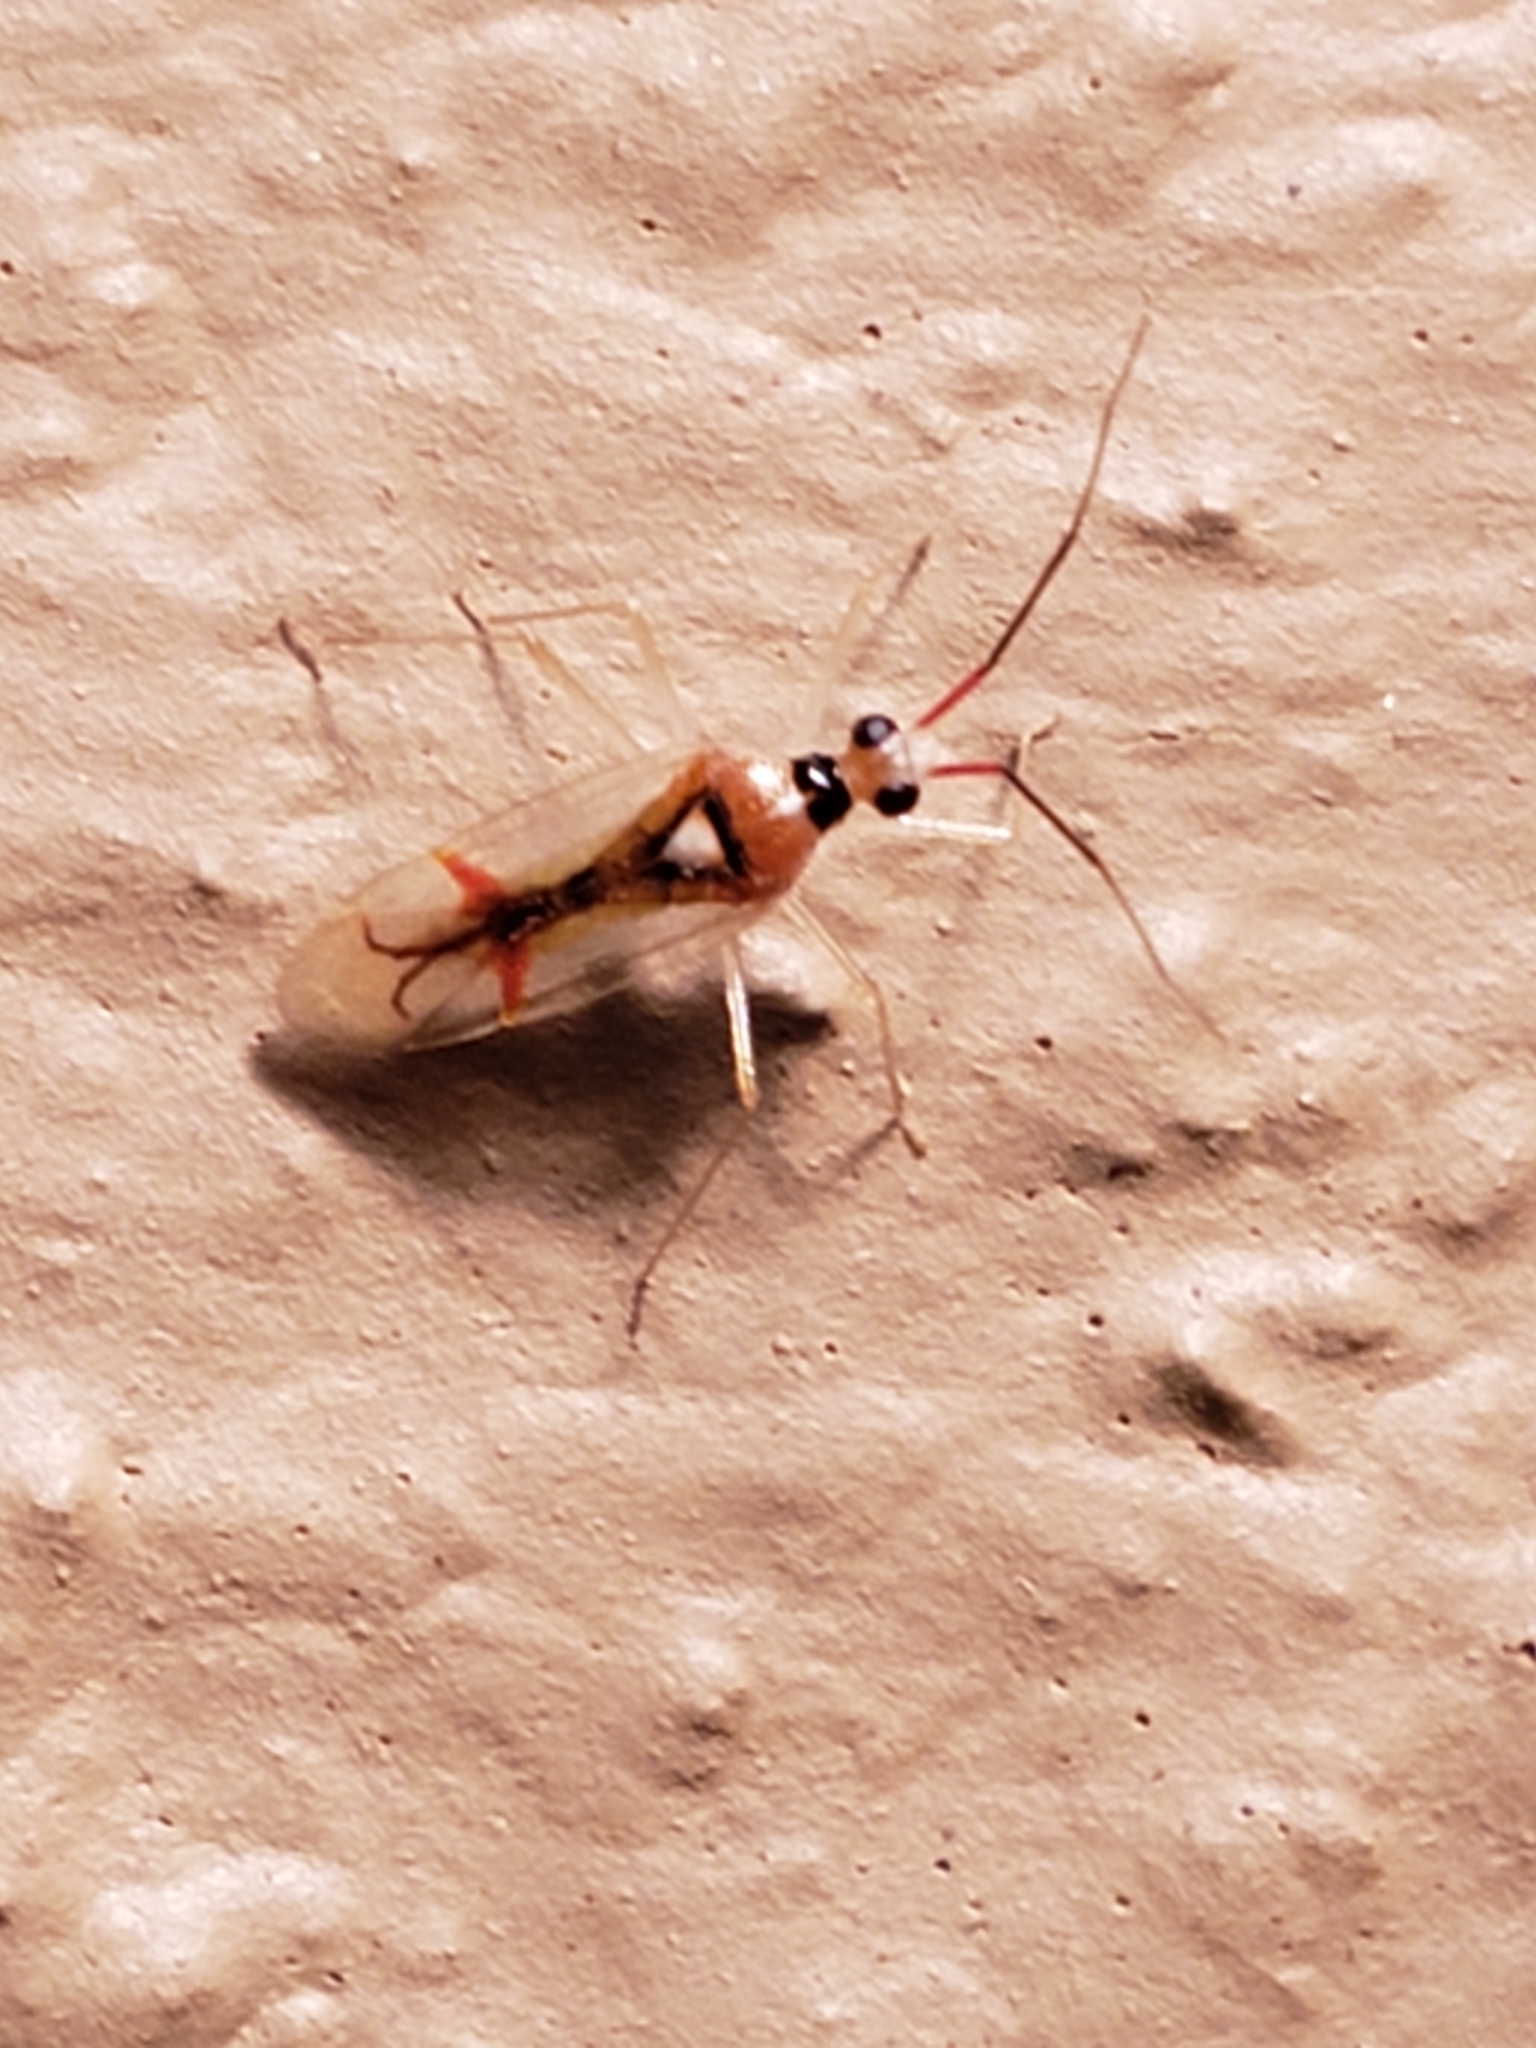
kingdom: Animalia
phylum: Arthropoda
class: Insecta
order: Hemiptera
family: Miridae
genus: Hyaliodes
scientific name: Hyaliodes harti
